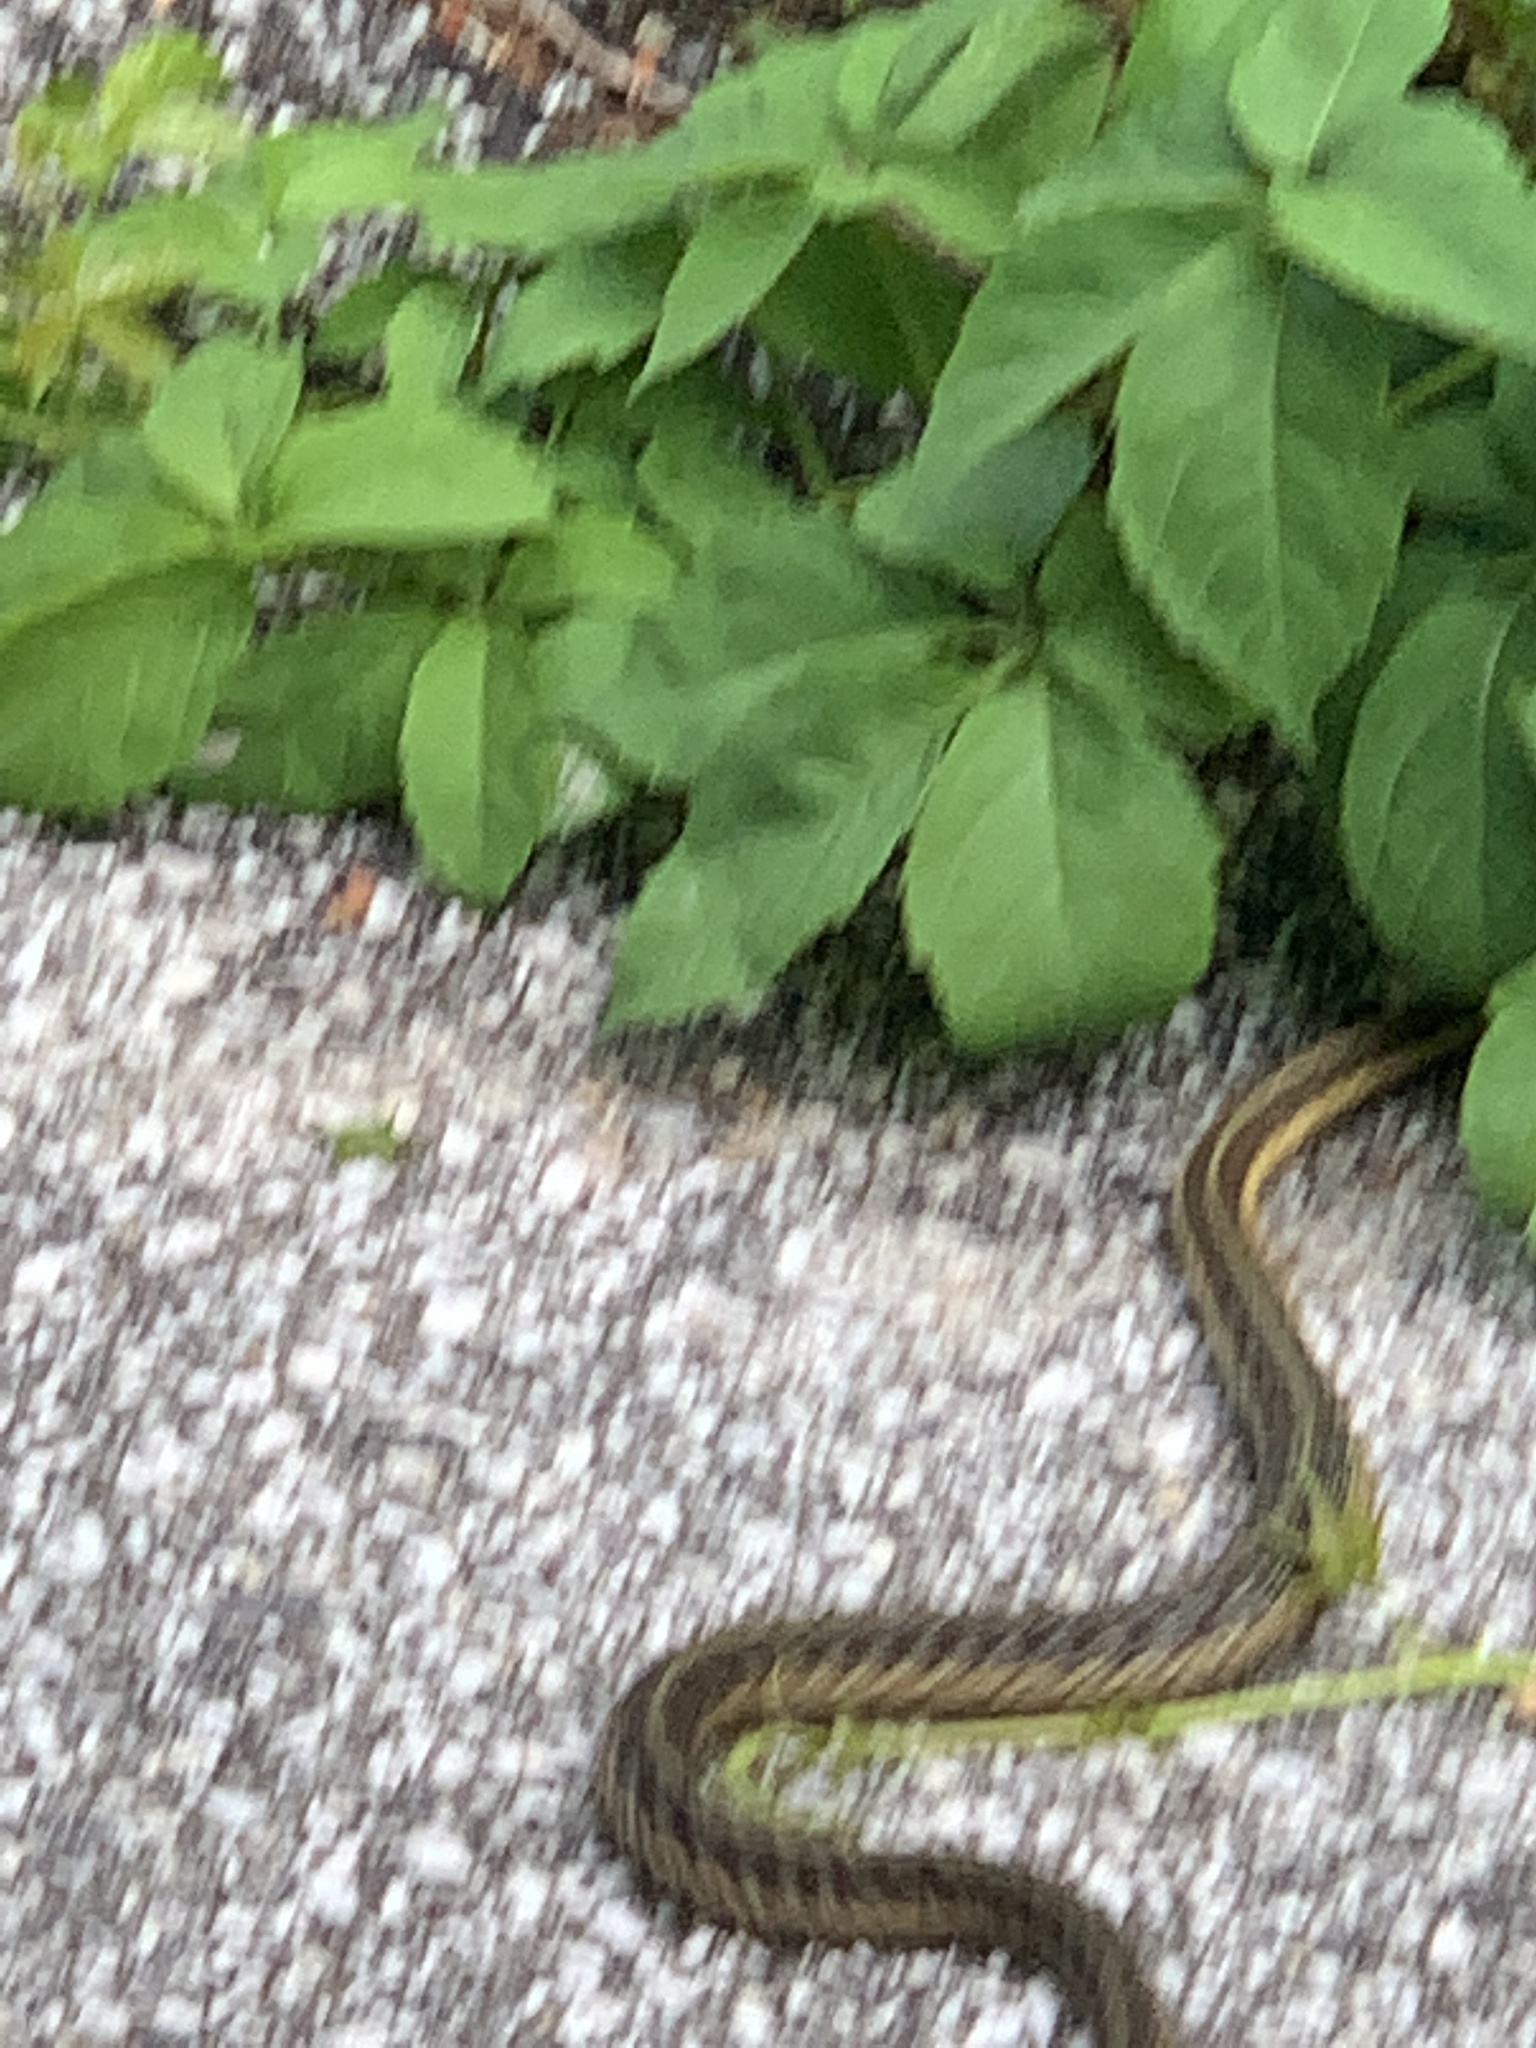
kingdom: Animalia
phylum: Chordata
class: Squamata
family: Colubridae
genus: Thamnophis
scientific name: Thamnophis sirtalis
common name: Common garter snake
